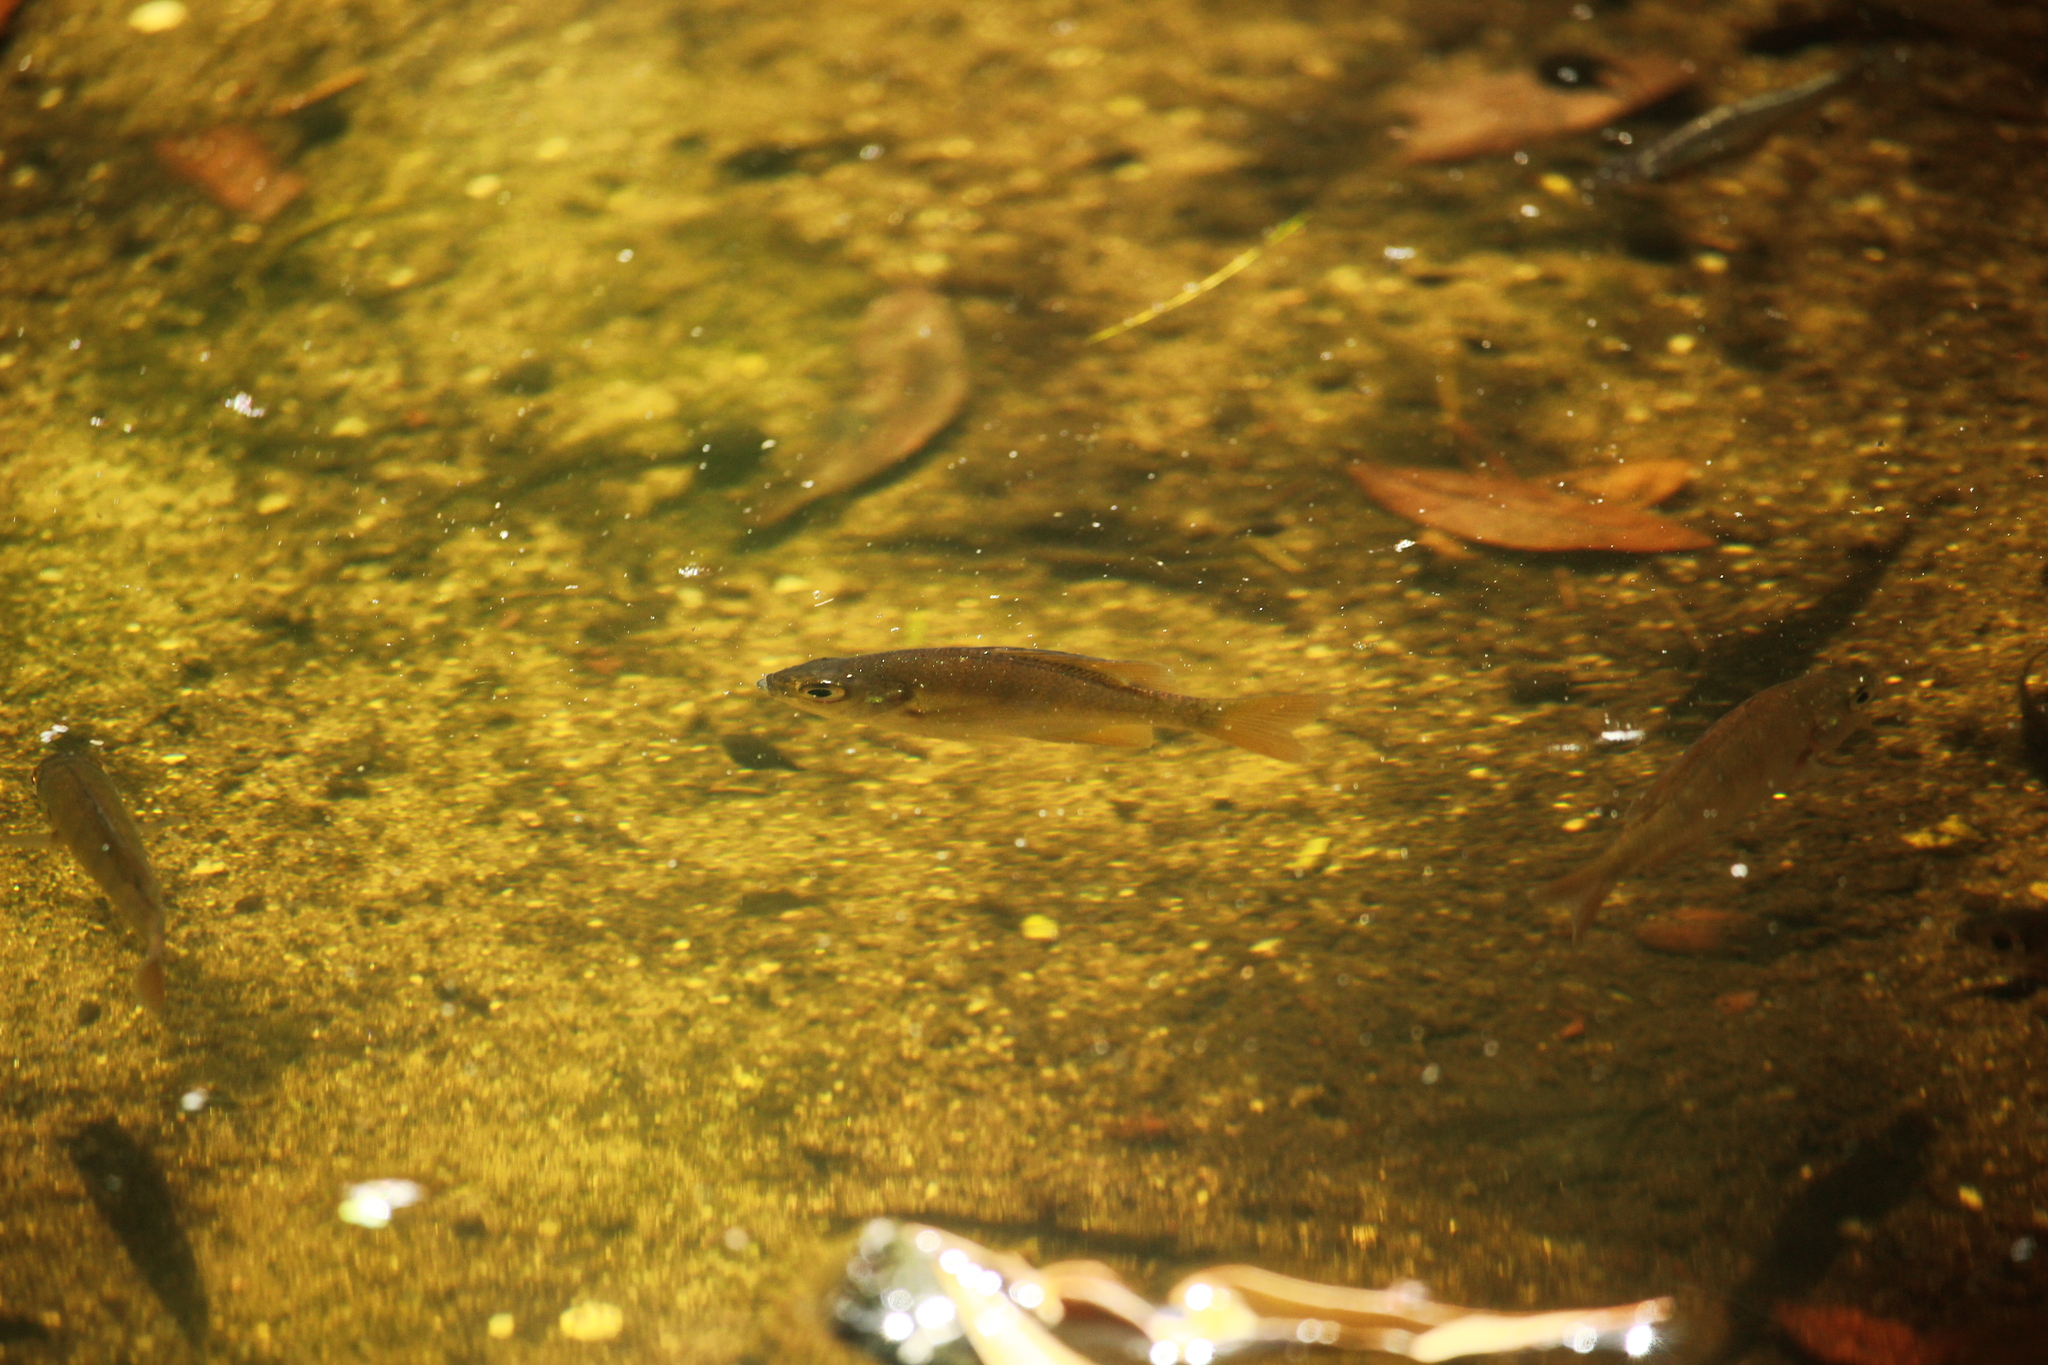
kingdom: Animalia
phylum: Chordata
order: Perciformes
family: Centrarchidae
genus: Lepomis
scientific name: Lepomis macrochirus
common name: Bluegill
